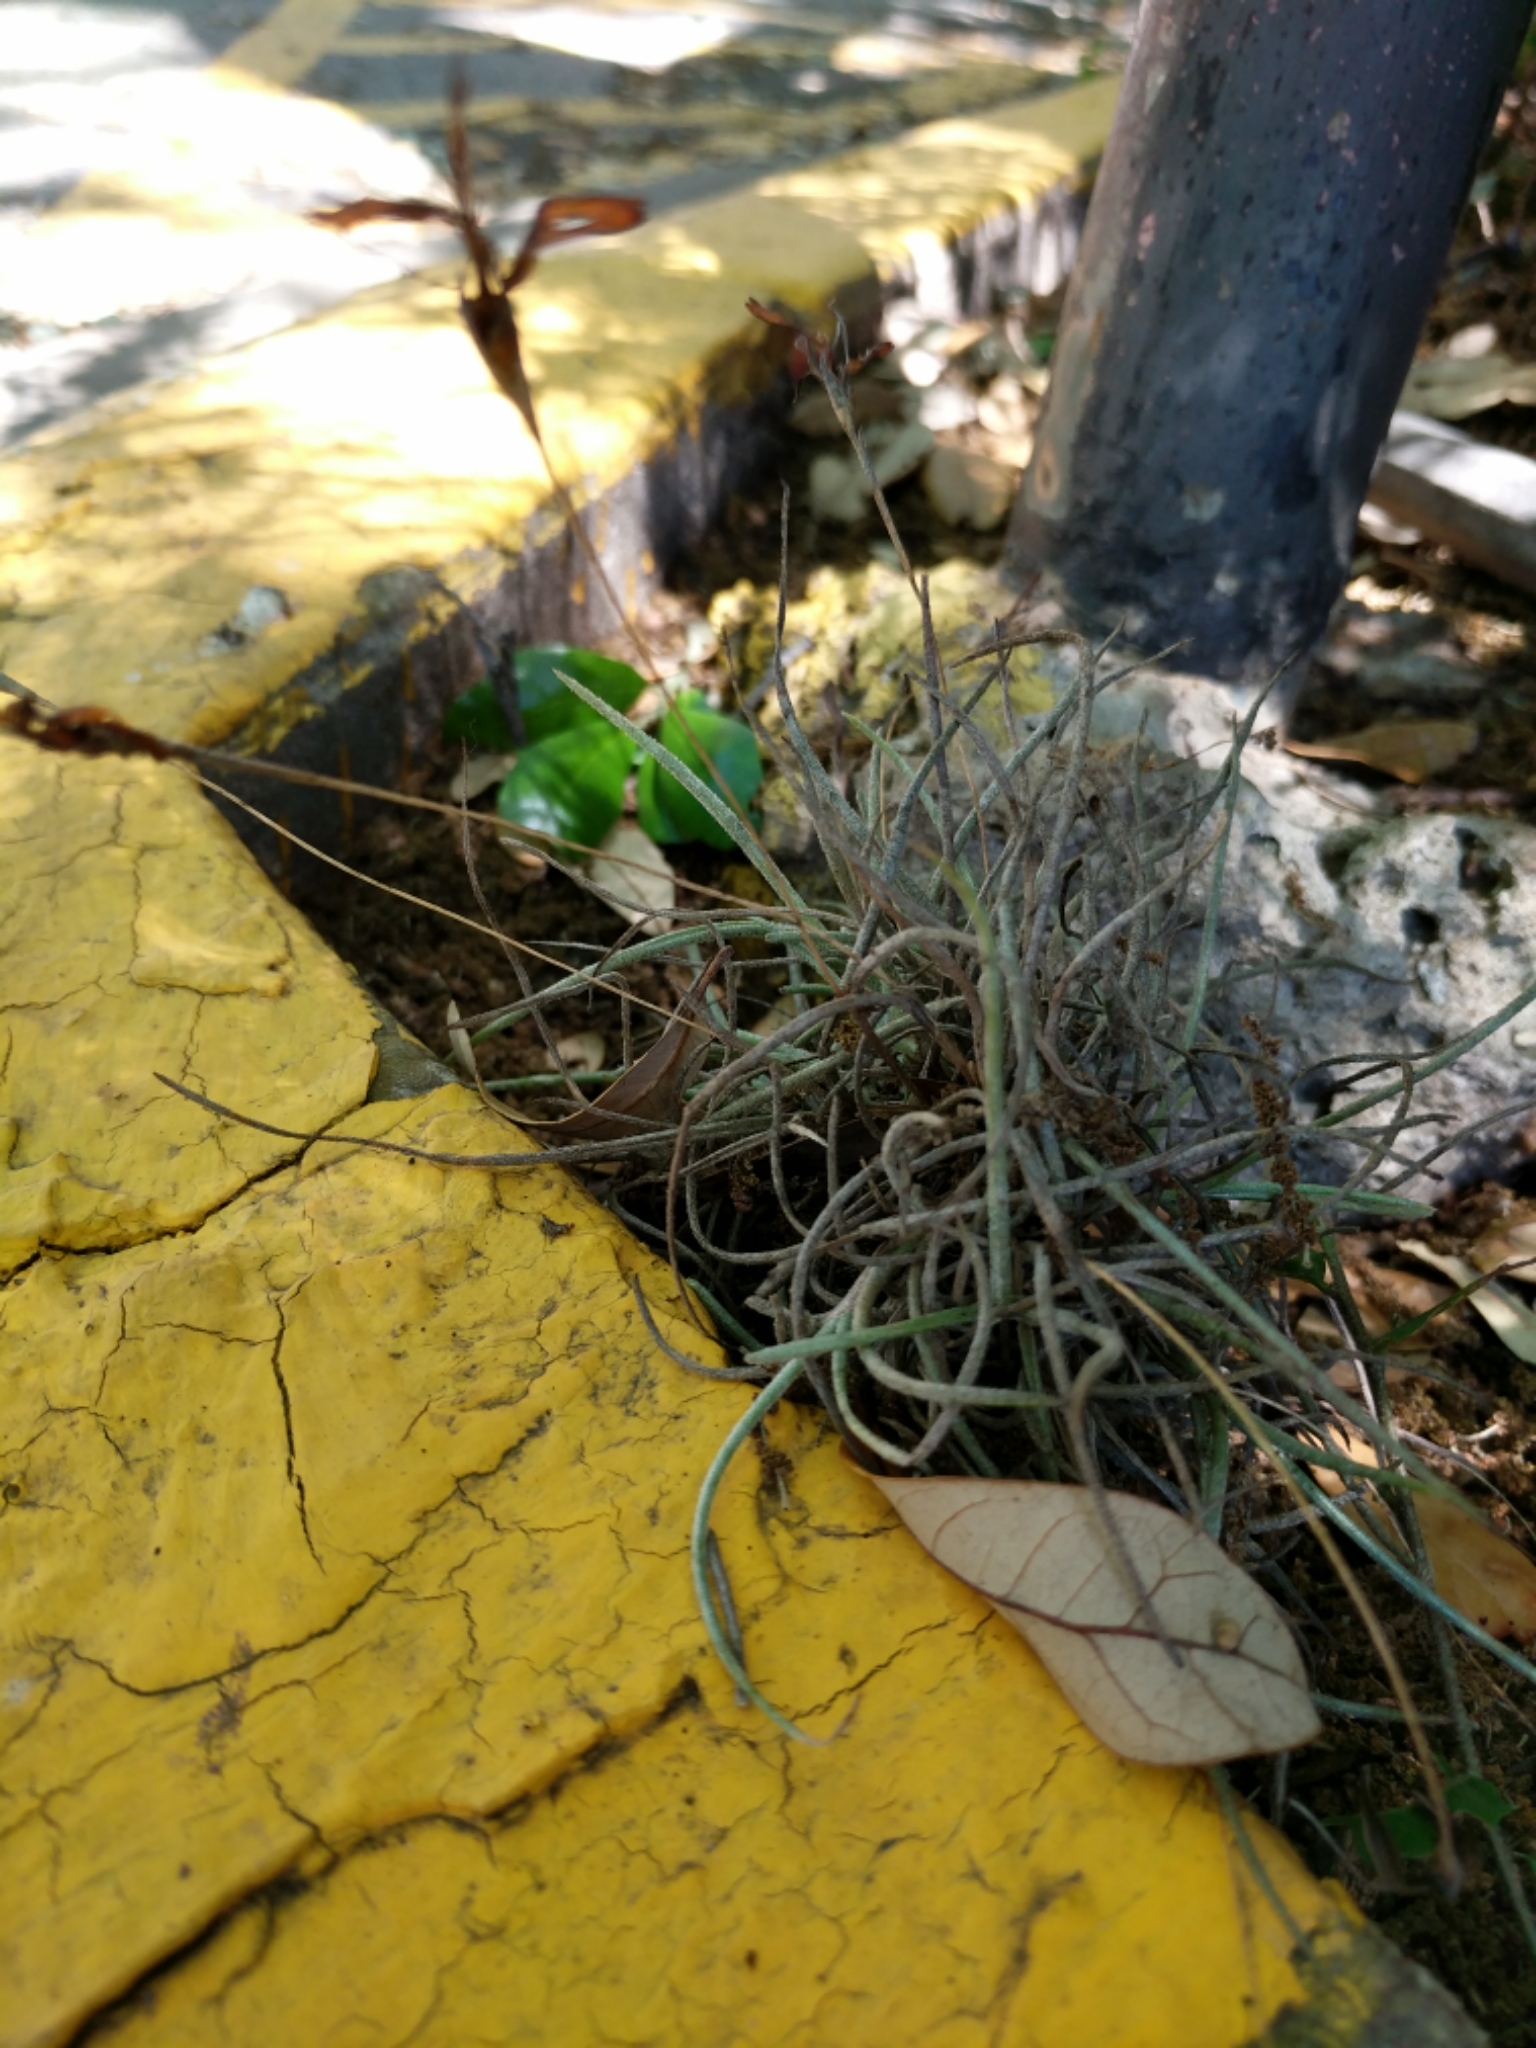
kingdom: Plantae
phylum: Tracheophyta
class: Liliopsida
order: Poales
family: Bromeliaceae
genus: Tillandsia
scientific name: Tillandsia recurvata
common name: Small ballmoss
